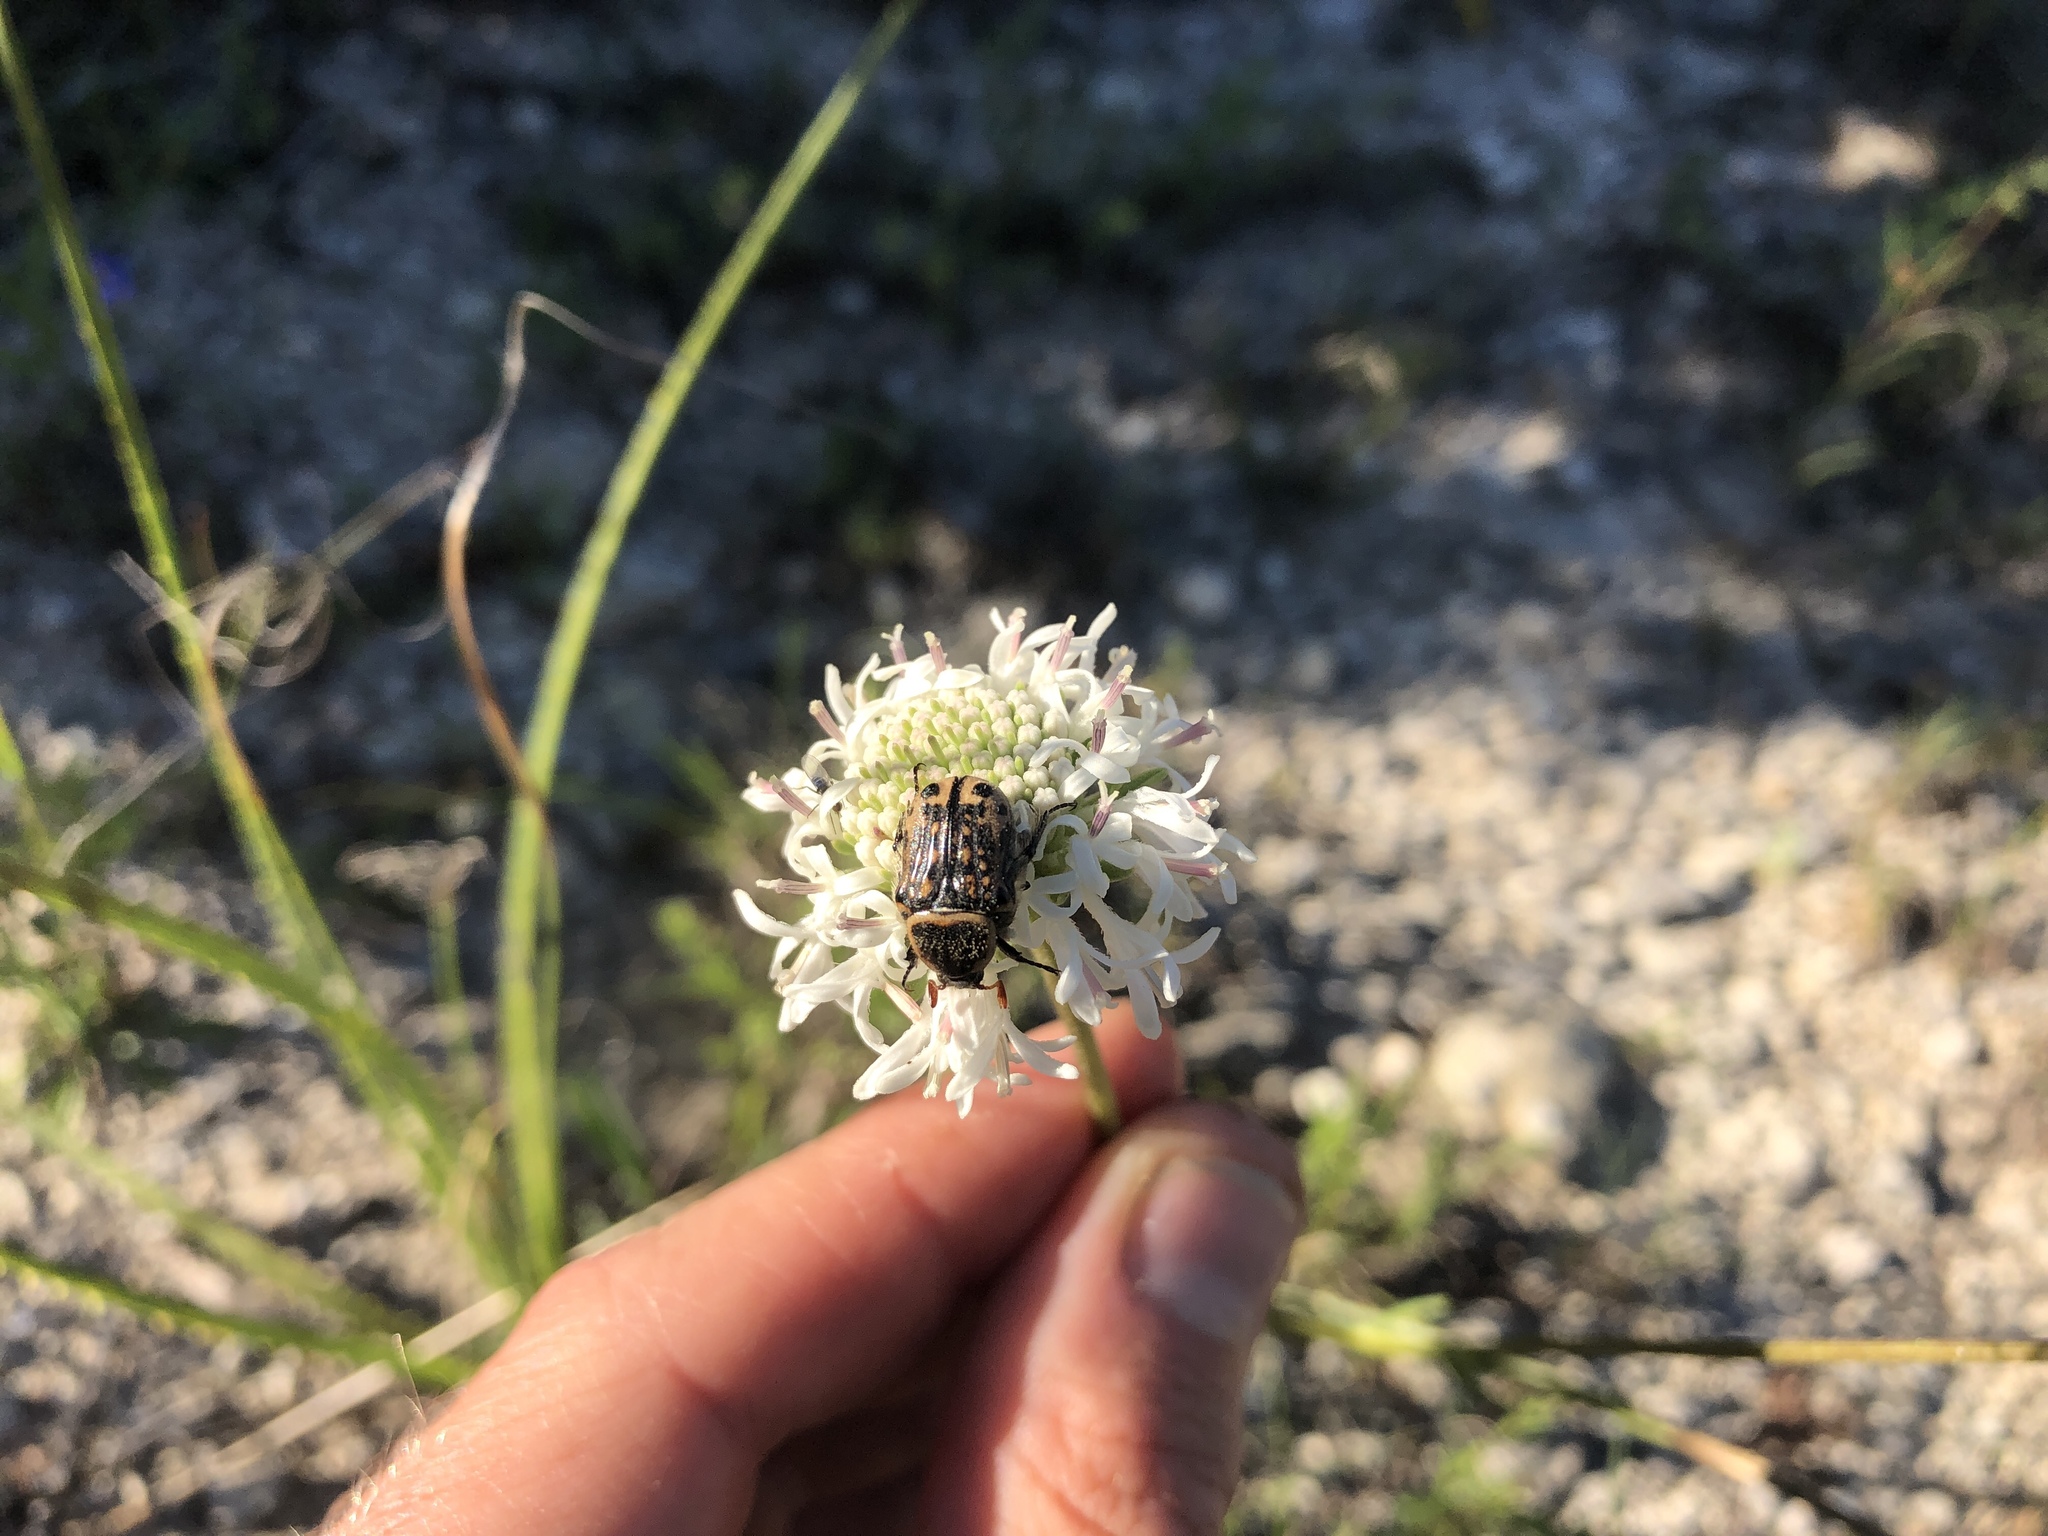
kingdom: Animalia
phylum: Arthropoda
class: Insecta
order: Coleoptera
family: Scarabaeidae
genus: Euphoria
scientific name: Euphoria kernii
